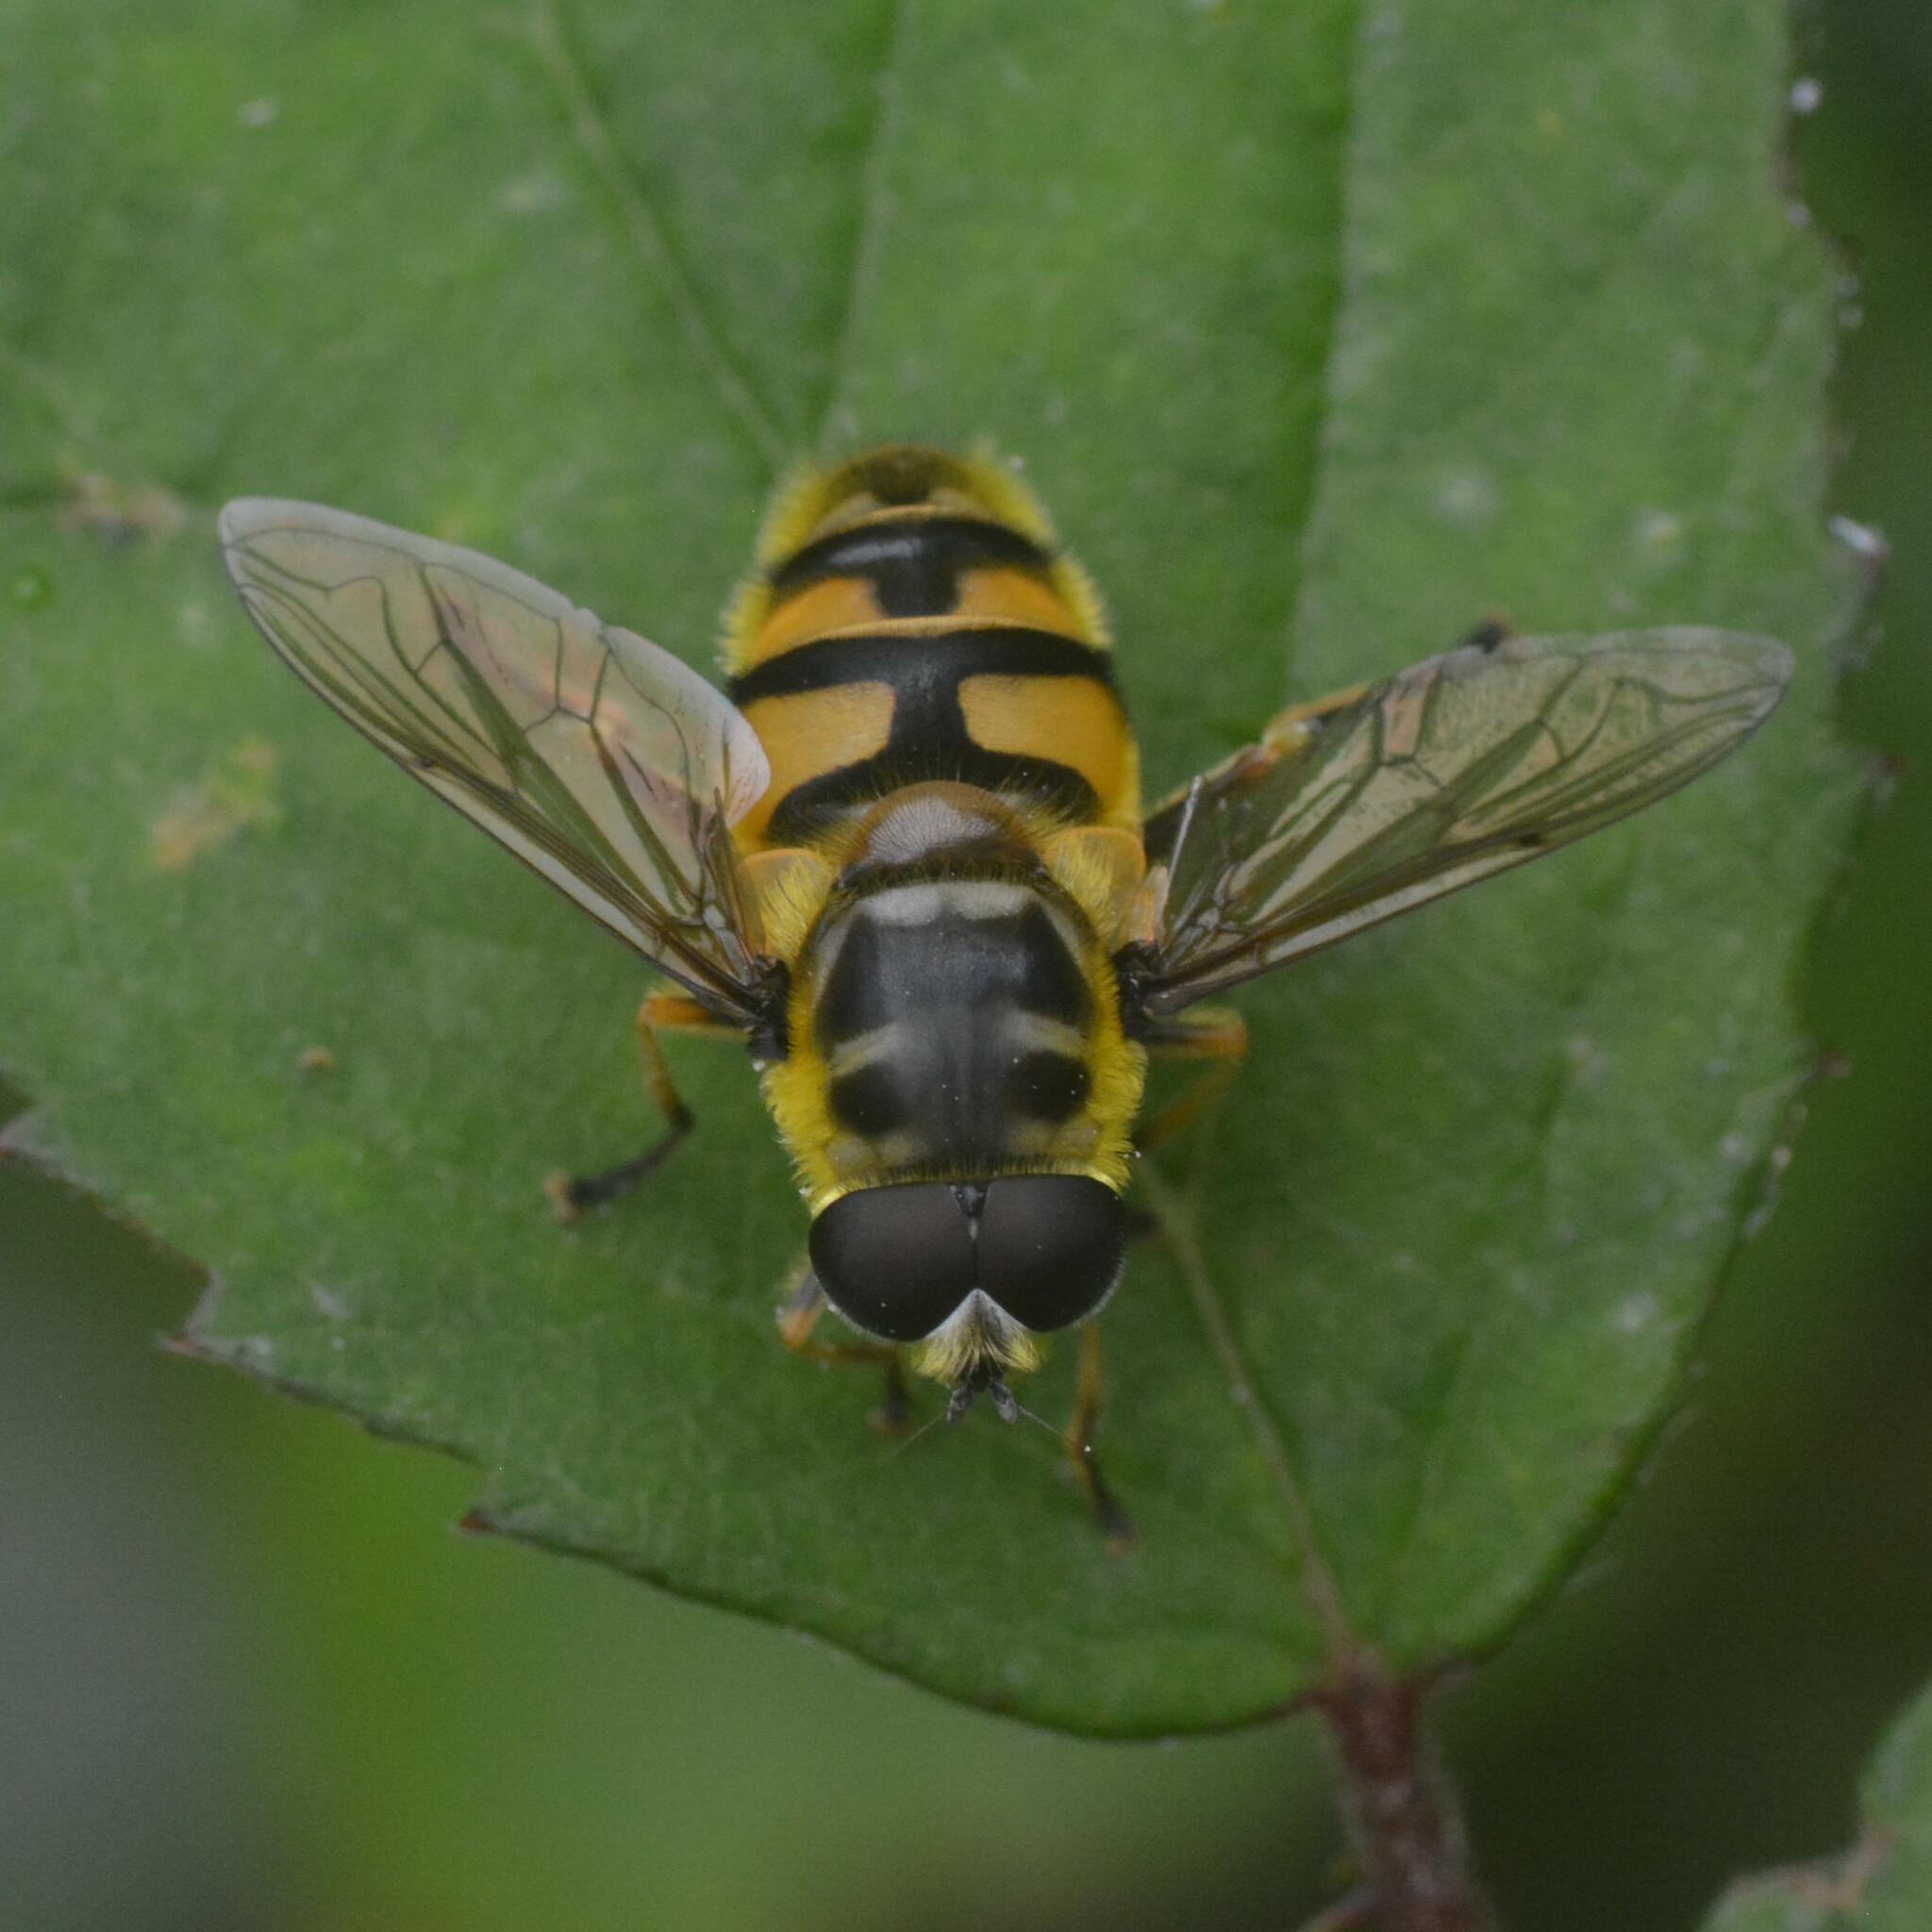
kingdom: Animalia
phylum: Arthropoda
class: Insecta
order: Diptera
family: Syrphidae
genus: Myathropa
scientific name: Myathropa florea
